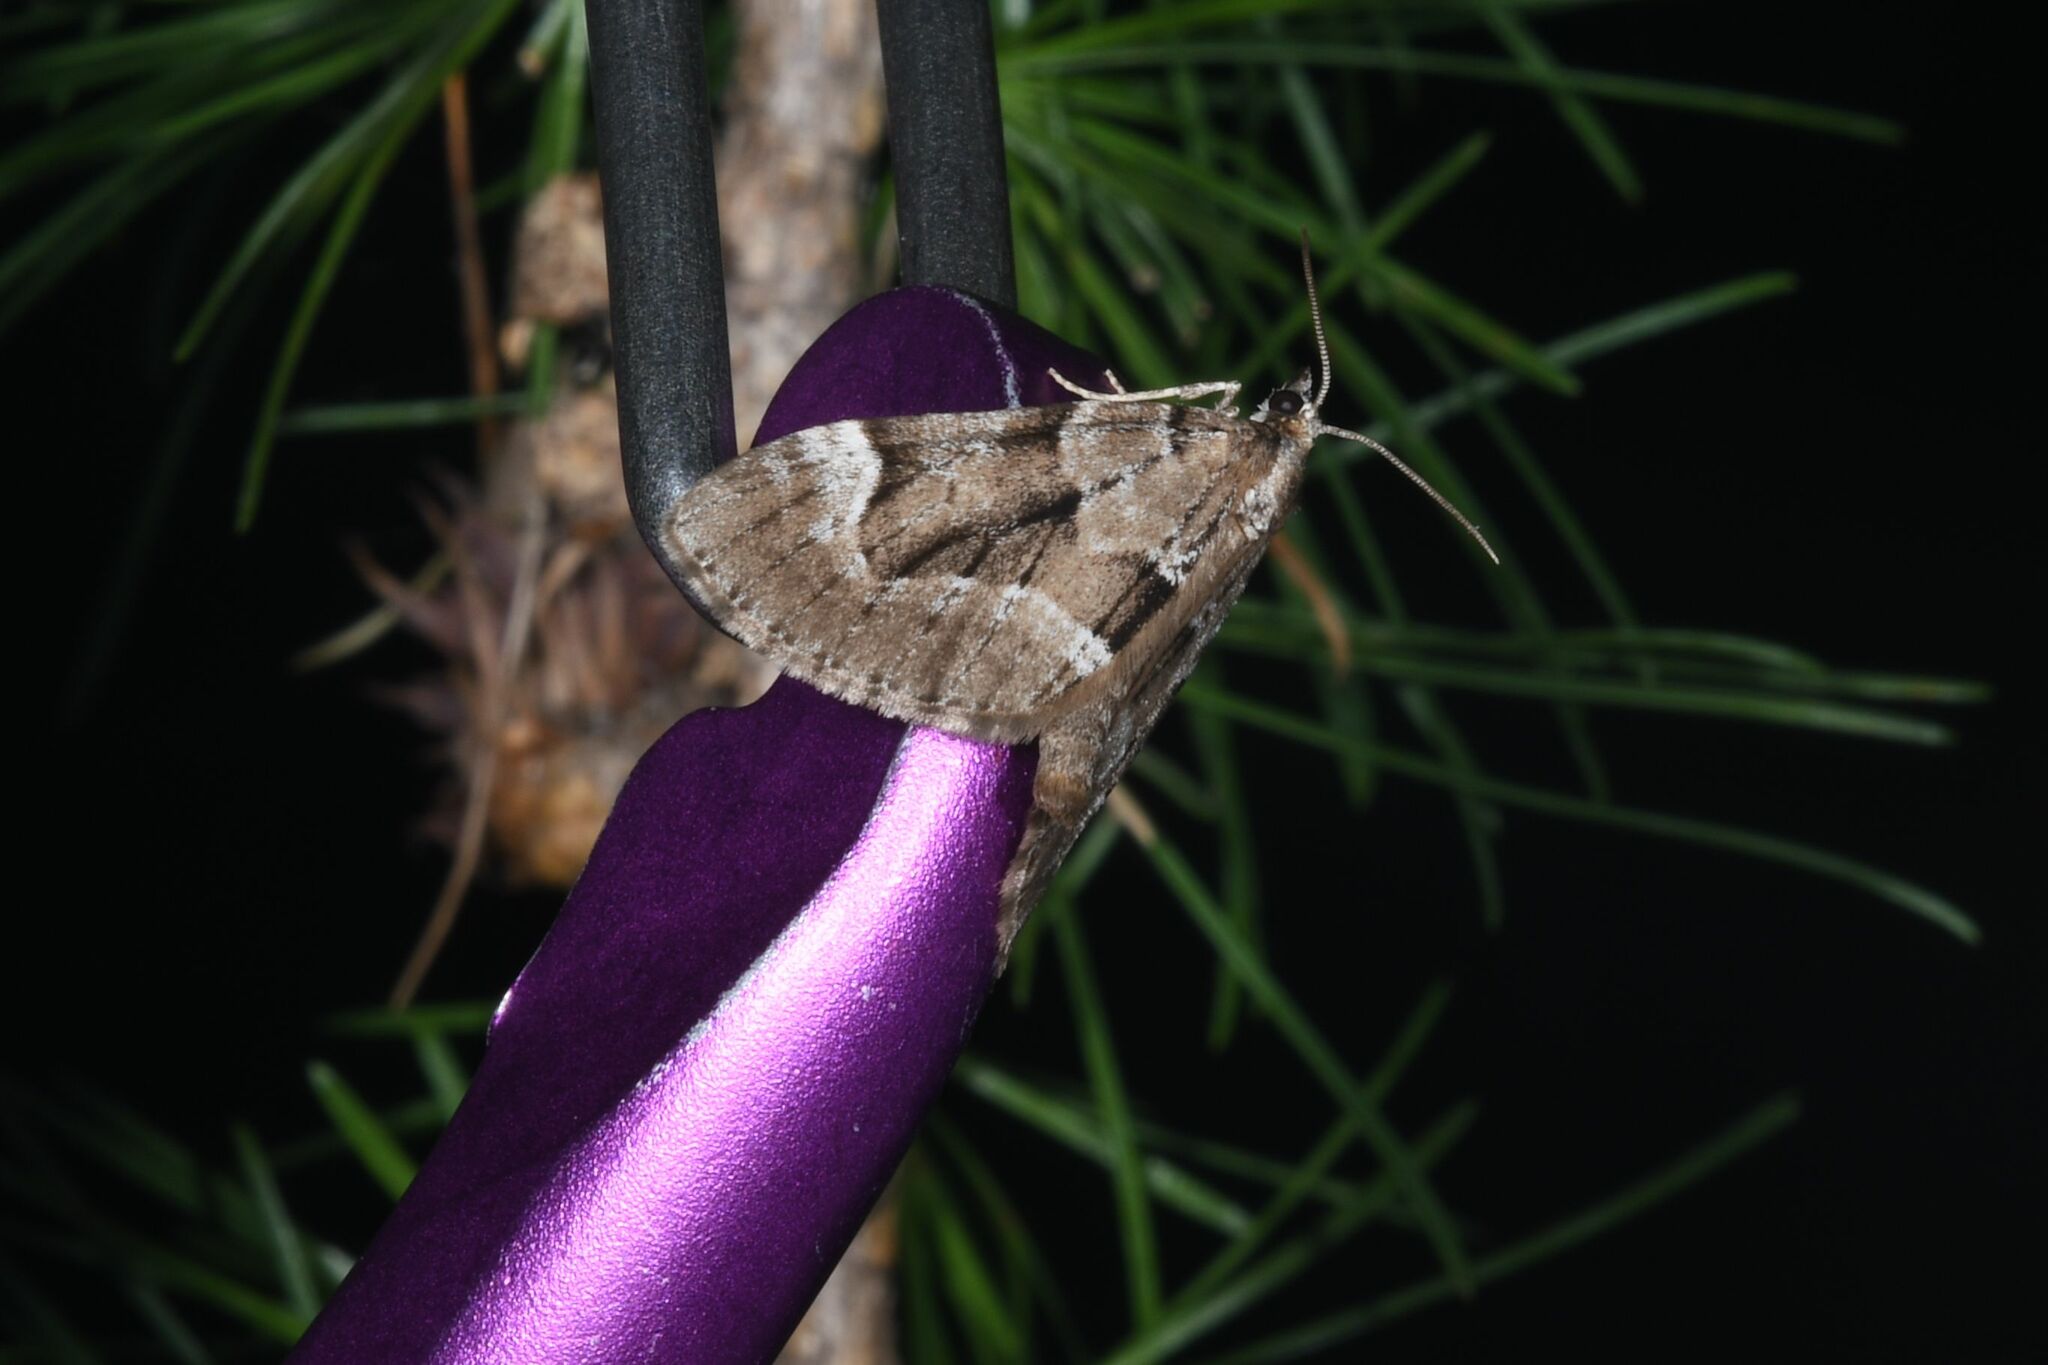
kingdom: Animalia
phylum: Arthropoda
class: Insecta
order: Lepidoptera
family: Geometridae
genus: Lobophorodes
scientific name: Lobophorodes
